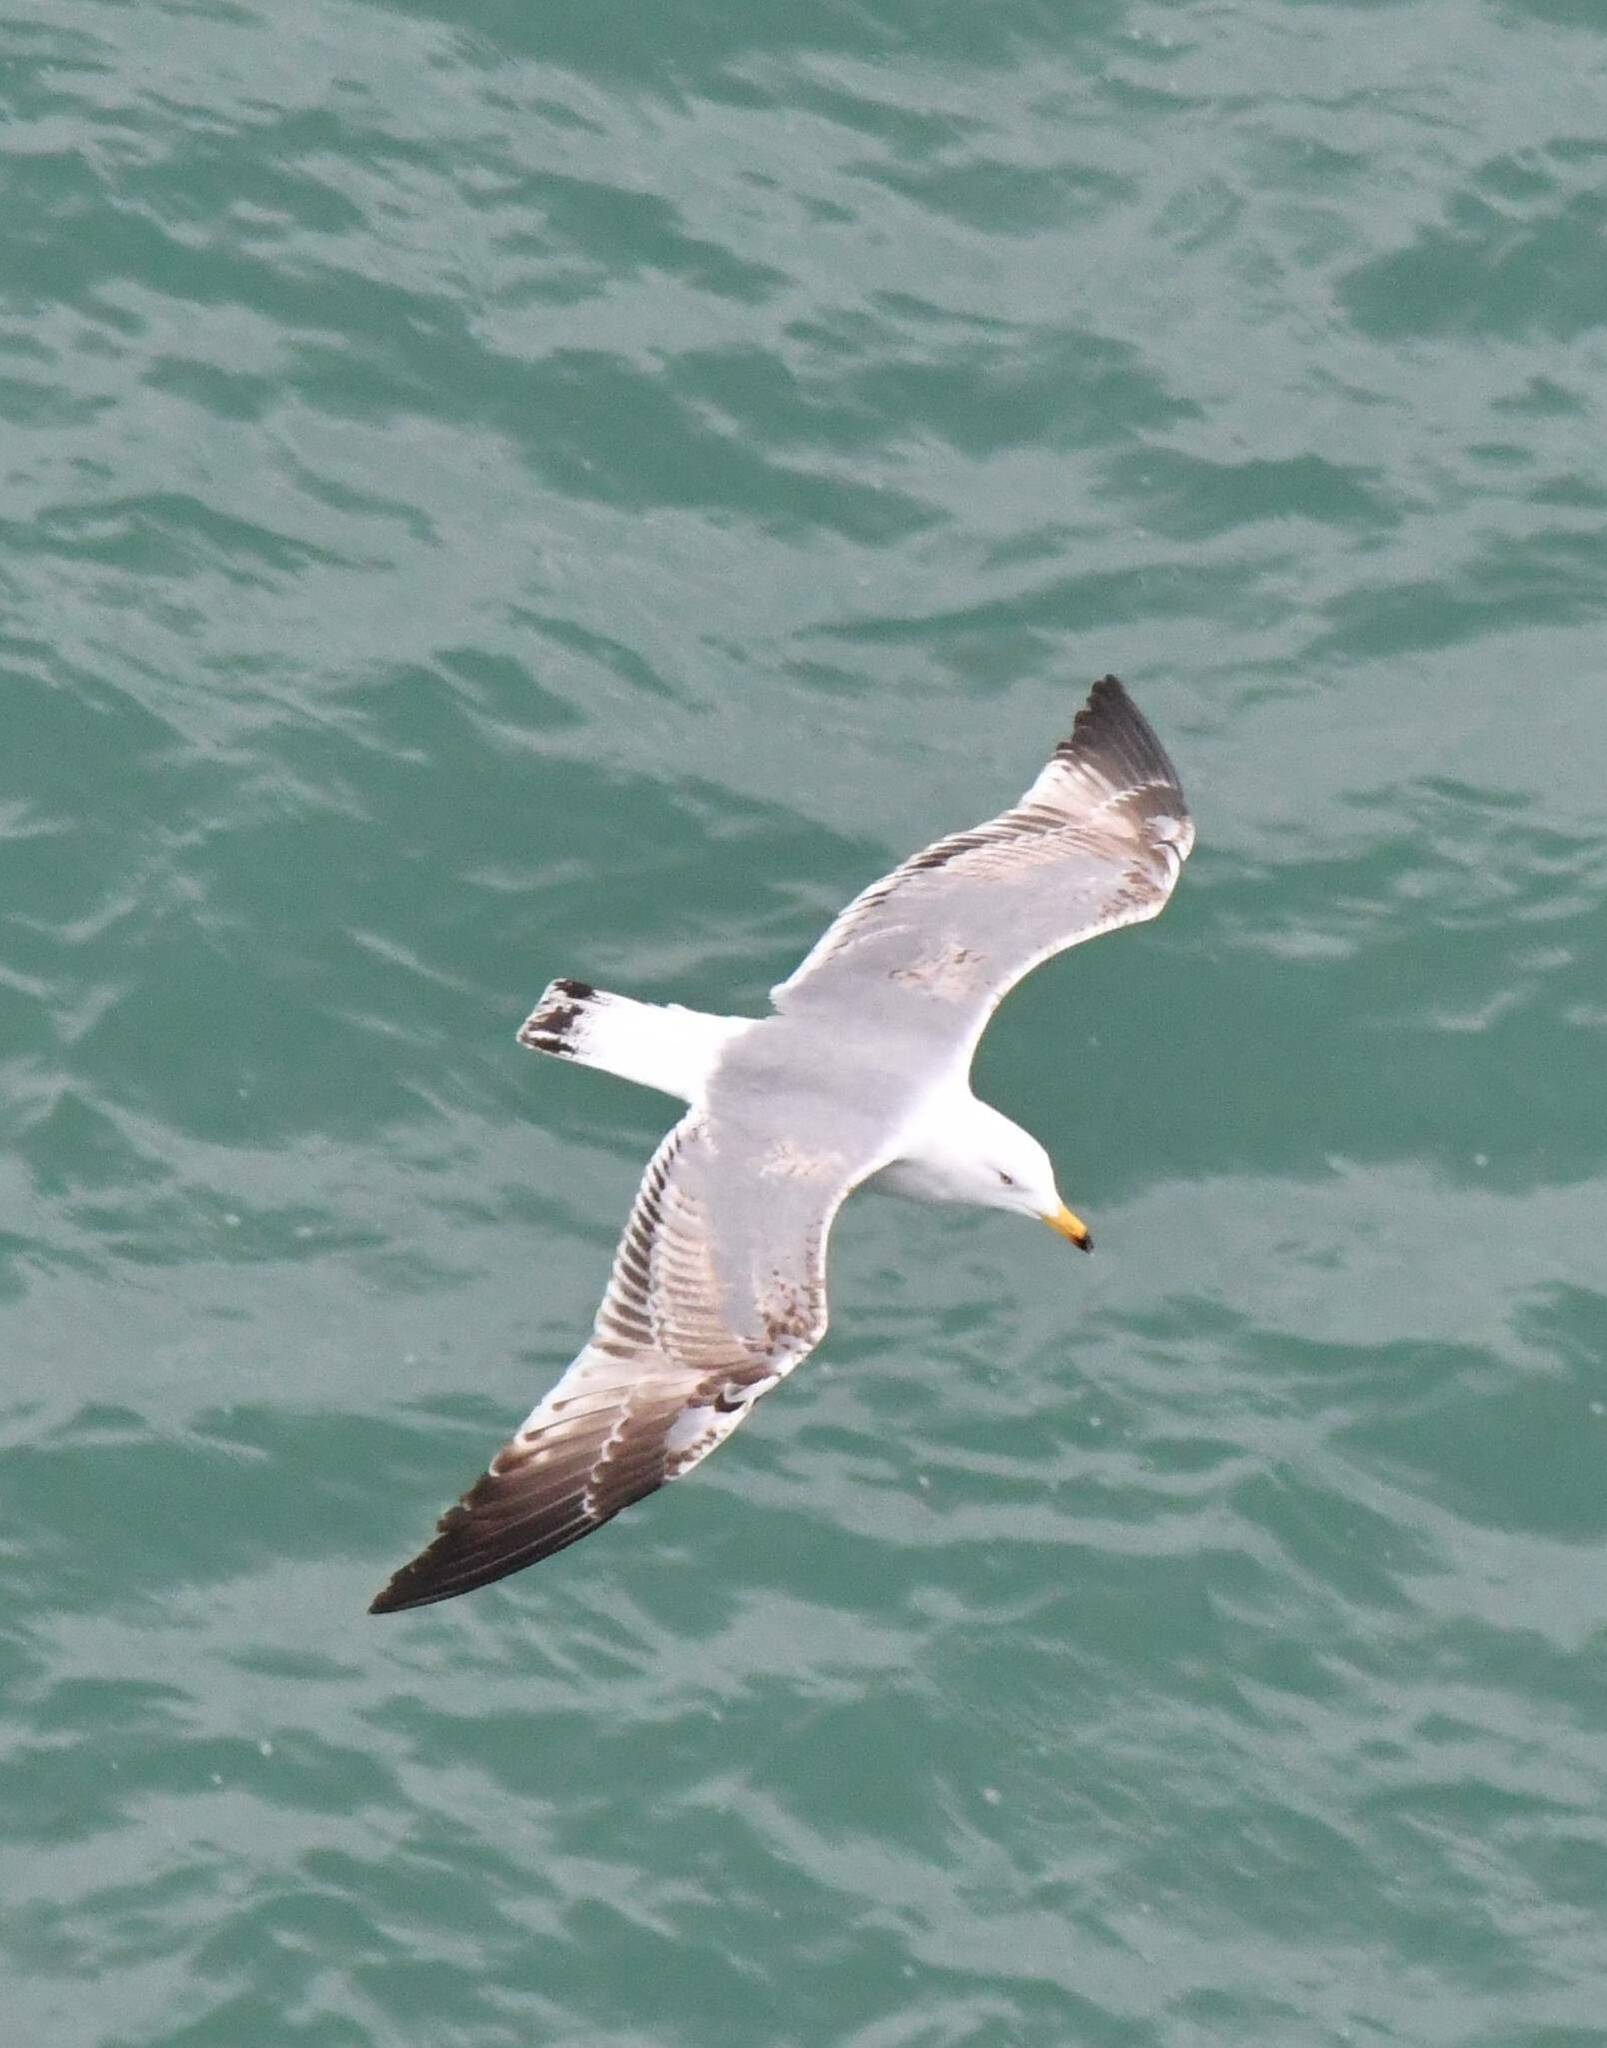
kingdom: Animalia
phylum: Chordata
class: Aves
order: Charadriiformes
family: Laridae
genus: Larus
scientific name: Larus michahellis
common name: Yellow-legged gull
